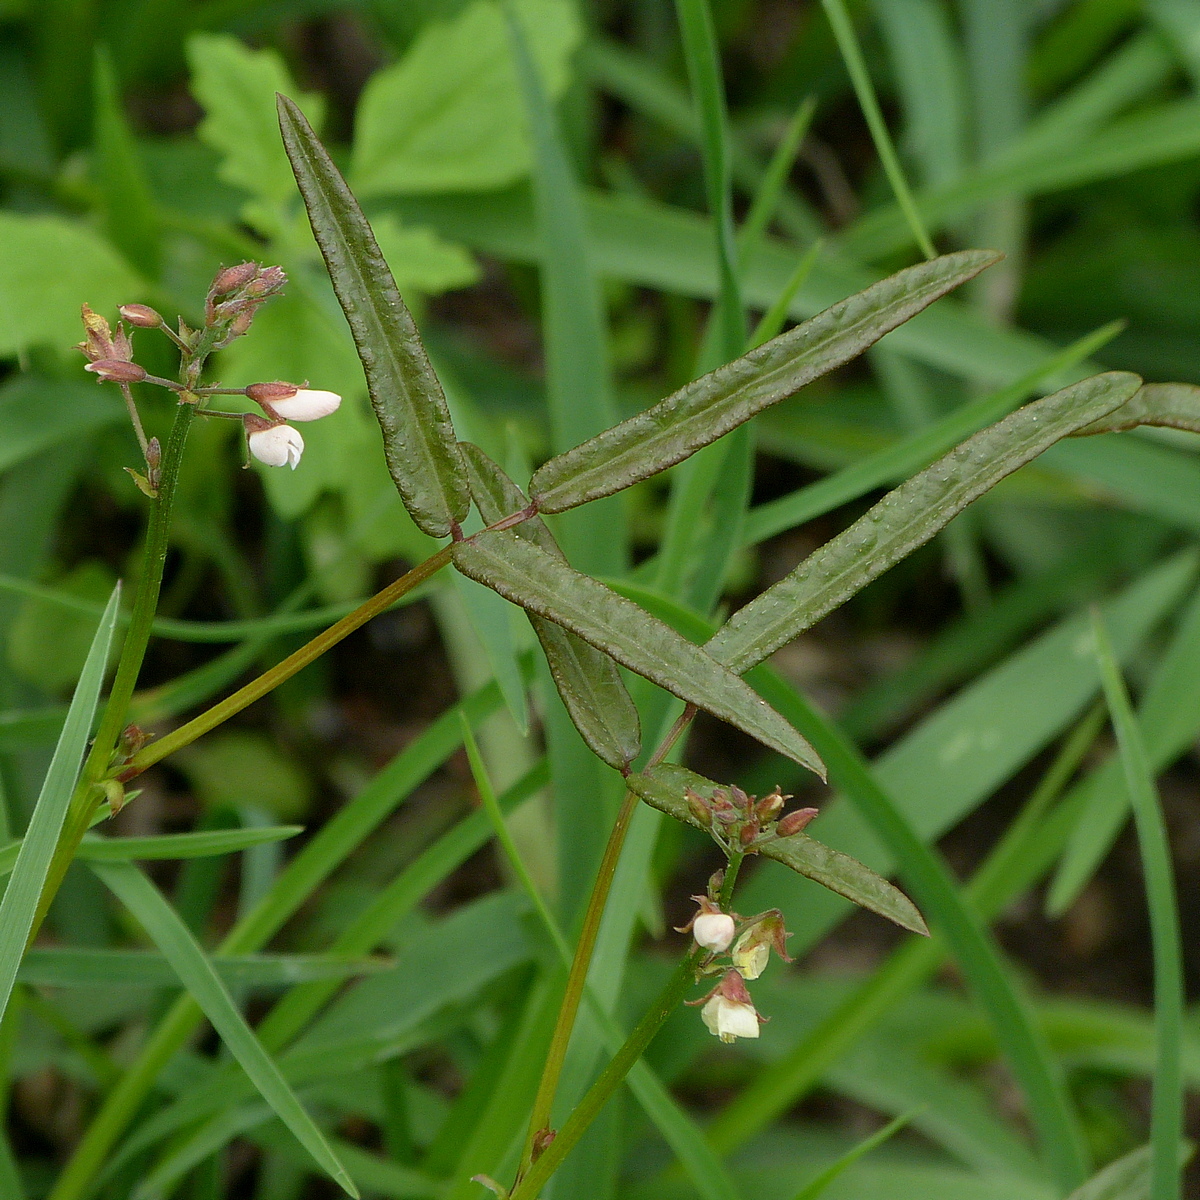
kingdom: Plantae
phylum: Tracheophyta
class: Magnoliopsida
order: Fabales
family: Fabaceae
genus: Grona
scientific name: Grona varians
